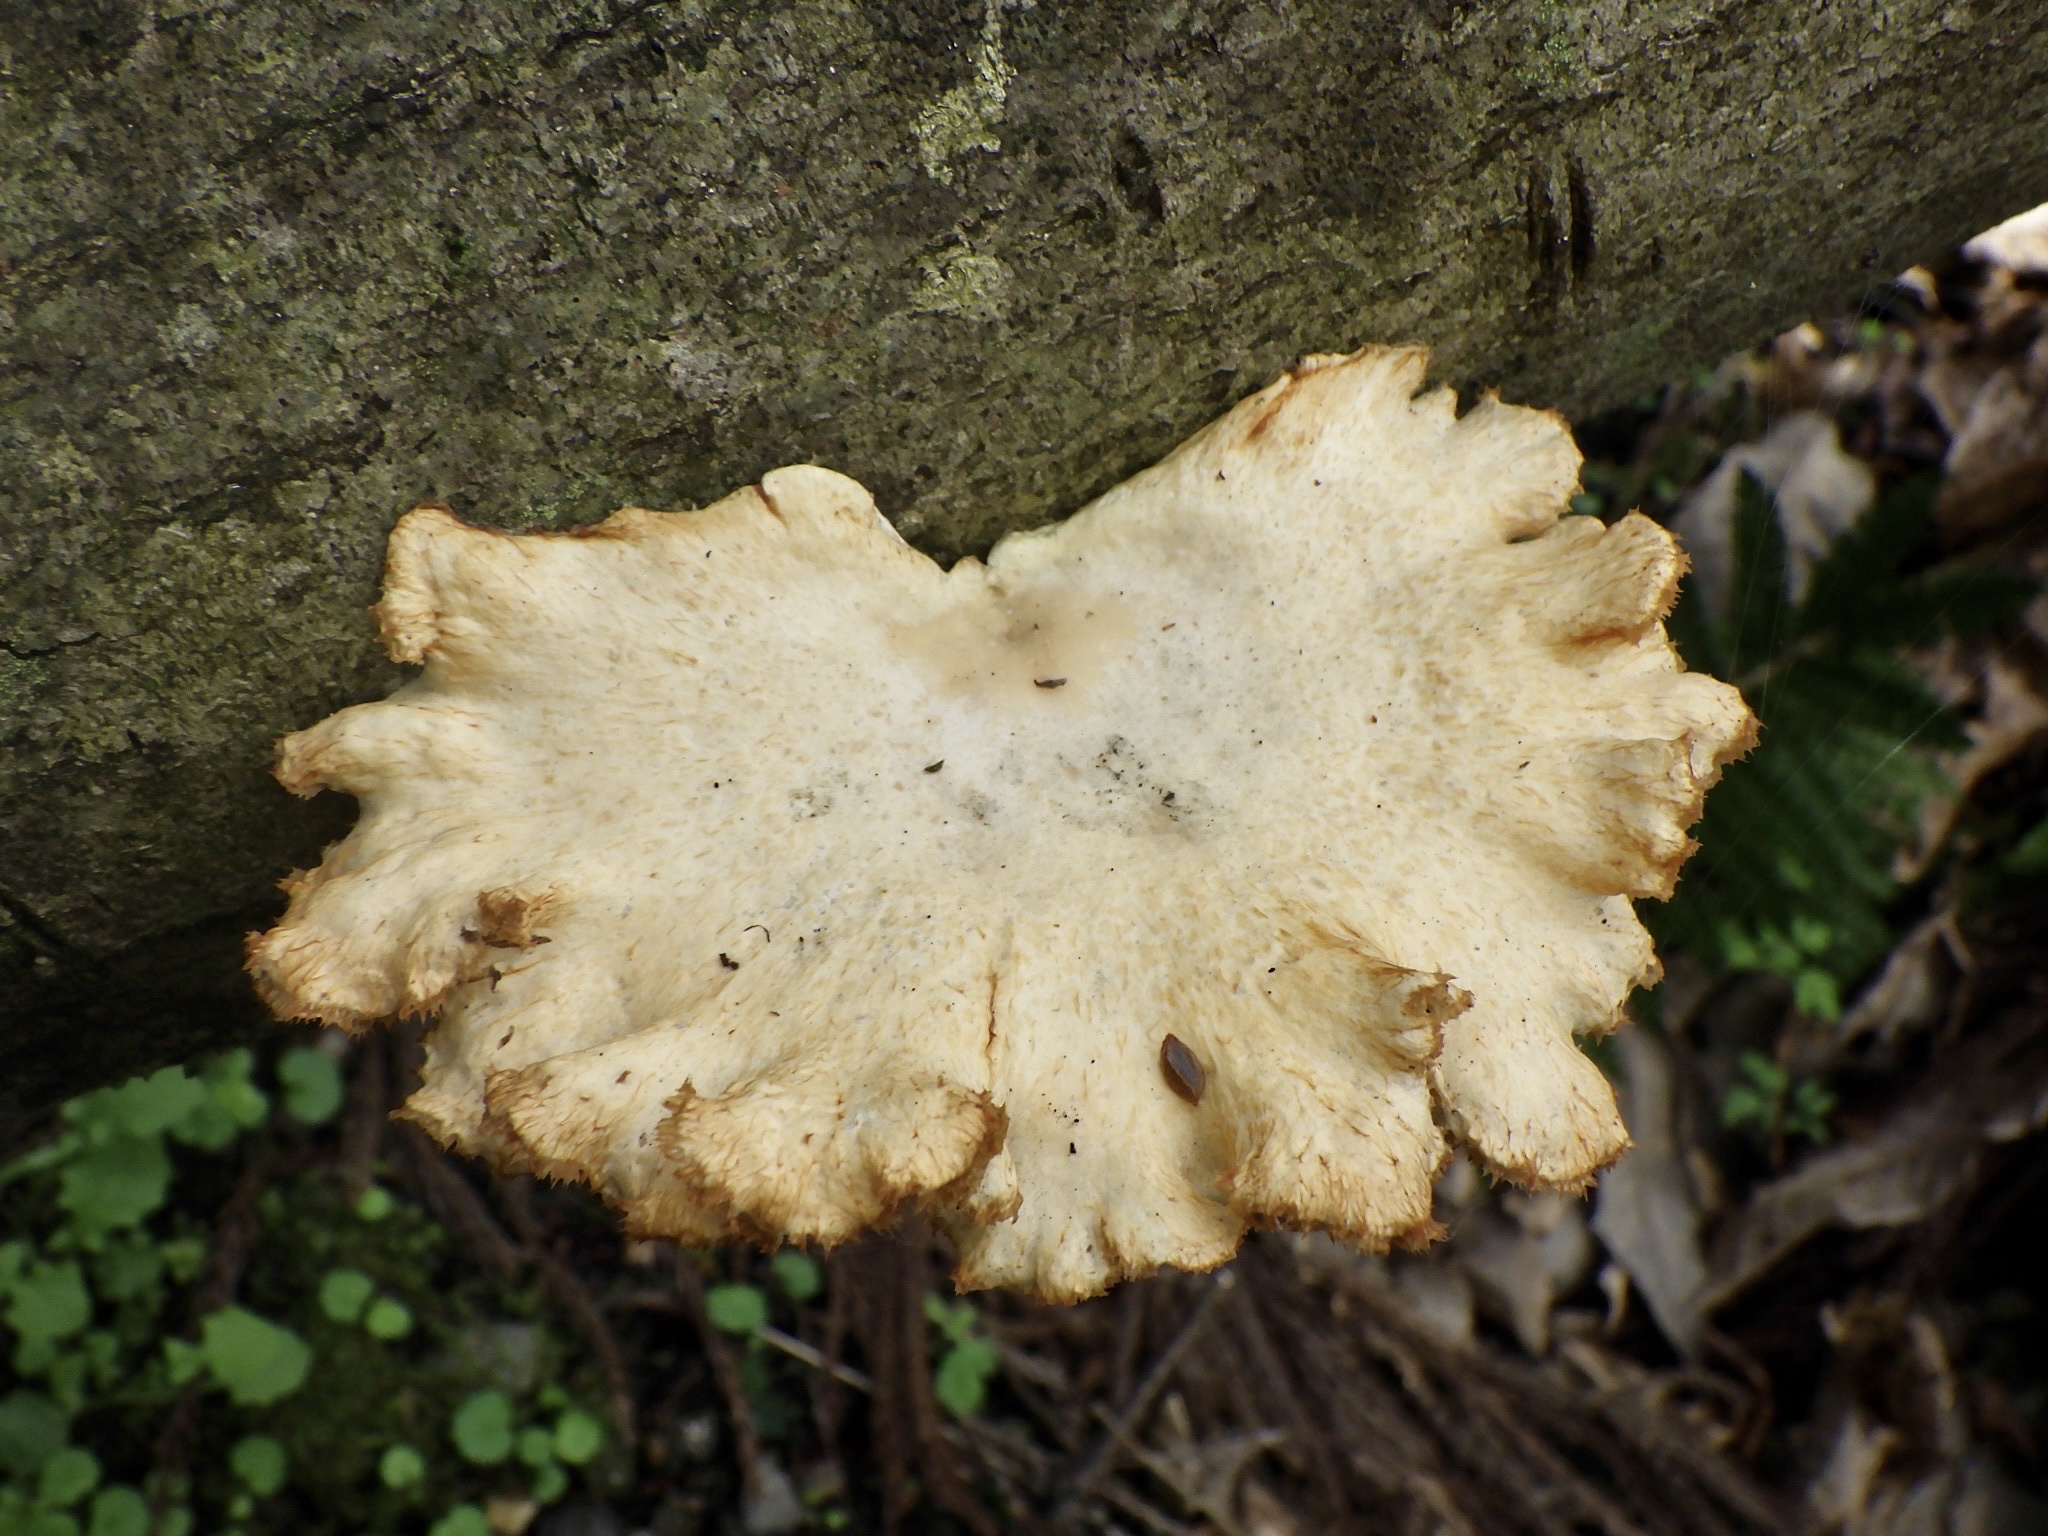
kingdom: Fungi
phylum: Basidiomycota
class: Agaricomycetes
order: Polyporales
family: Polyporaceae
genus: Neofavolus
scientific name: Neofavolus alveolaris
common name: Hexagonal-pored polypore
